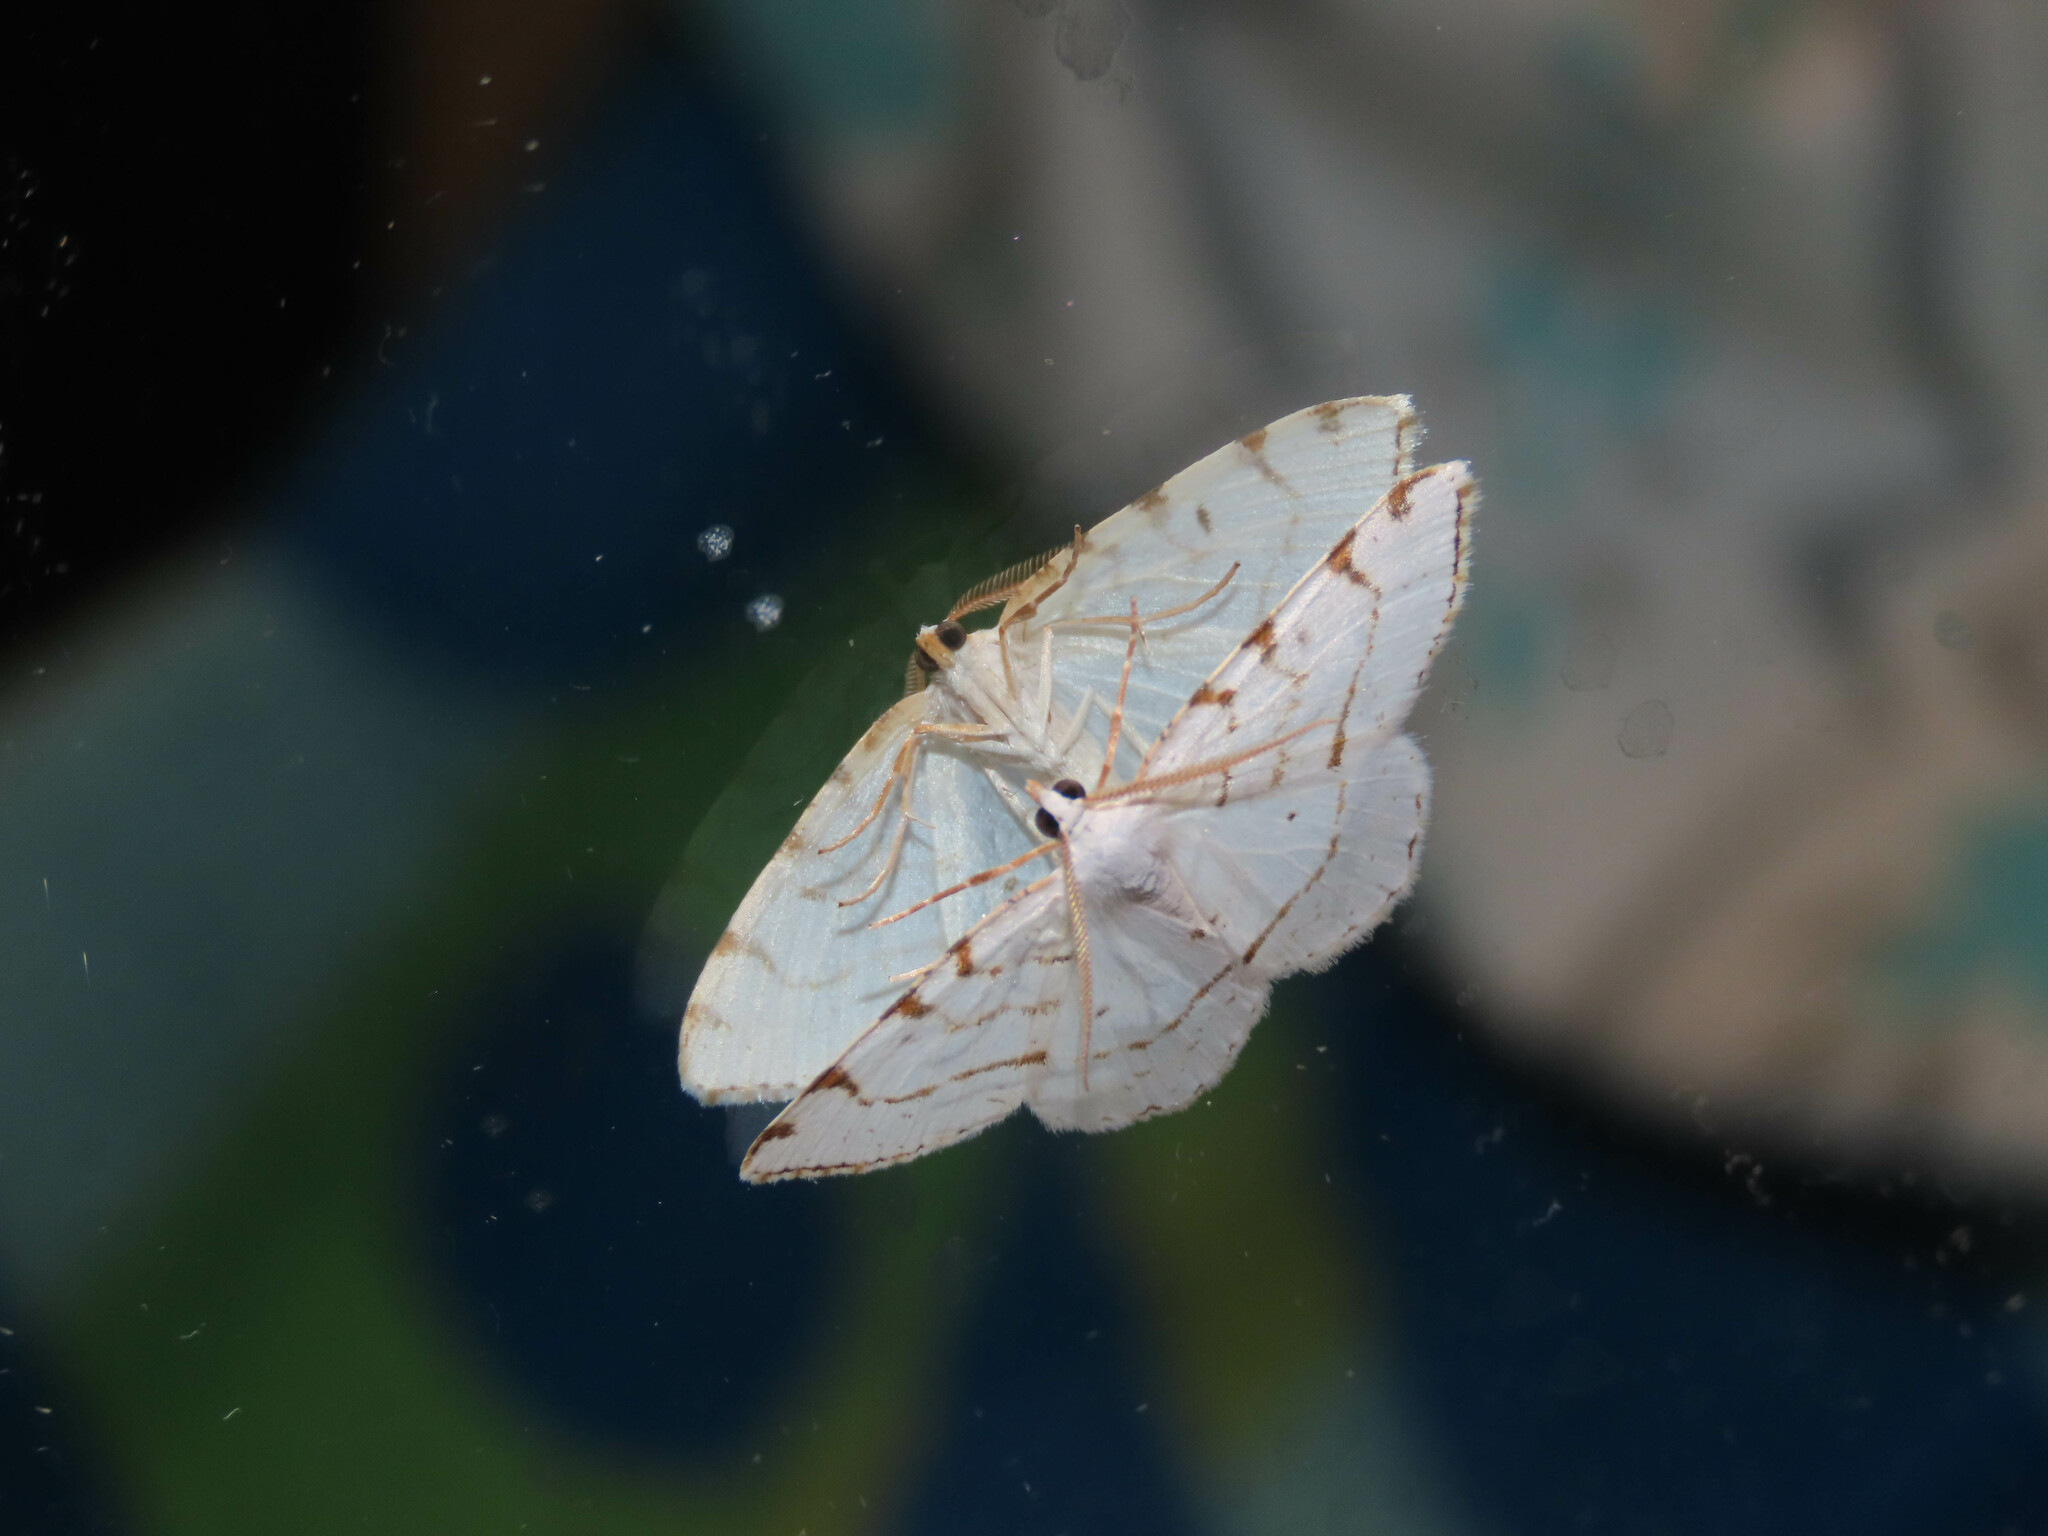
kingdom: Animalia
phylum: Arthropoda
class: Insecta
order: Lepidoptera
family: Geometridae
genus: Macaria
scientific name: Macaria pustularia
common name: Lesser maple spanworm moth
